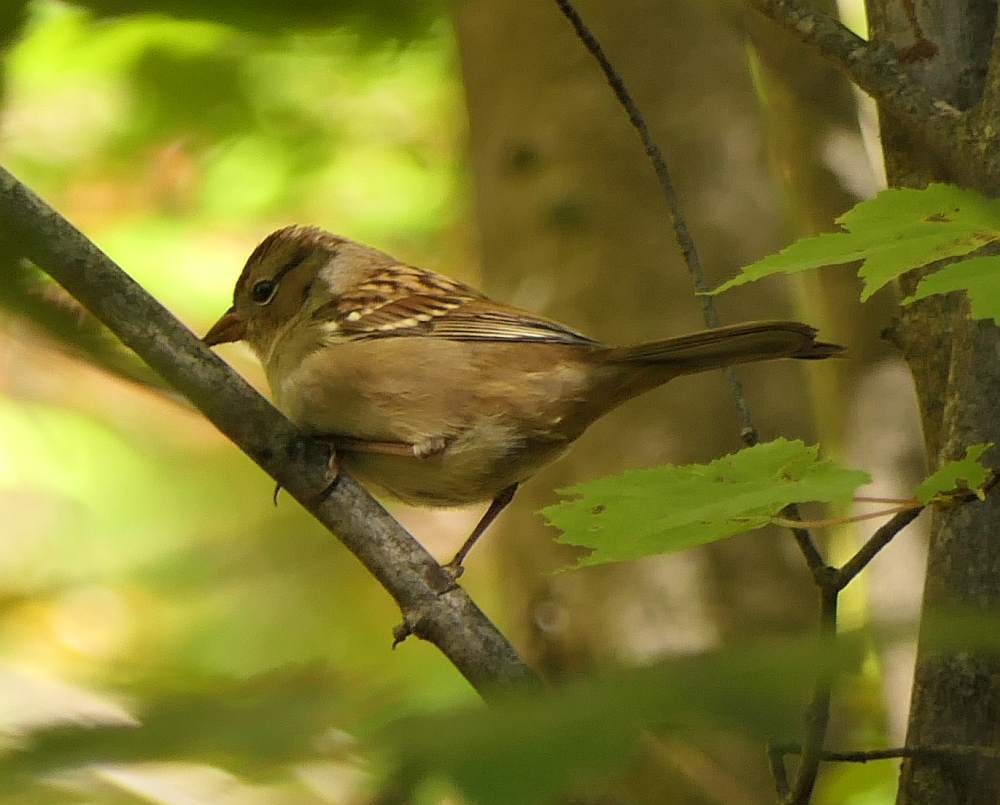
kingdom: Animalia
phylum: Chordata
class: Aves
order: Passeriformes
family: Passerellidae
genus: Zonotrichia
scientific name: Zonotrichia leucophrys
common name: White-crowned sparrow
